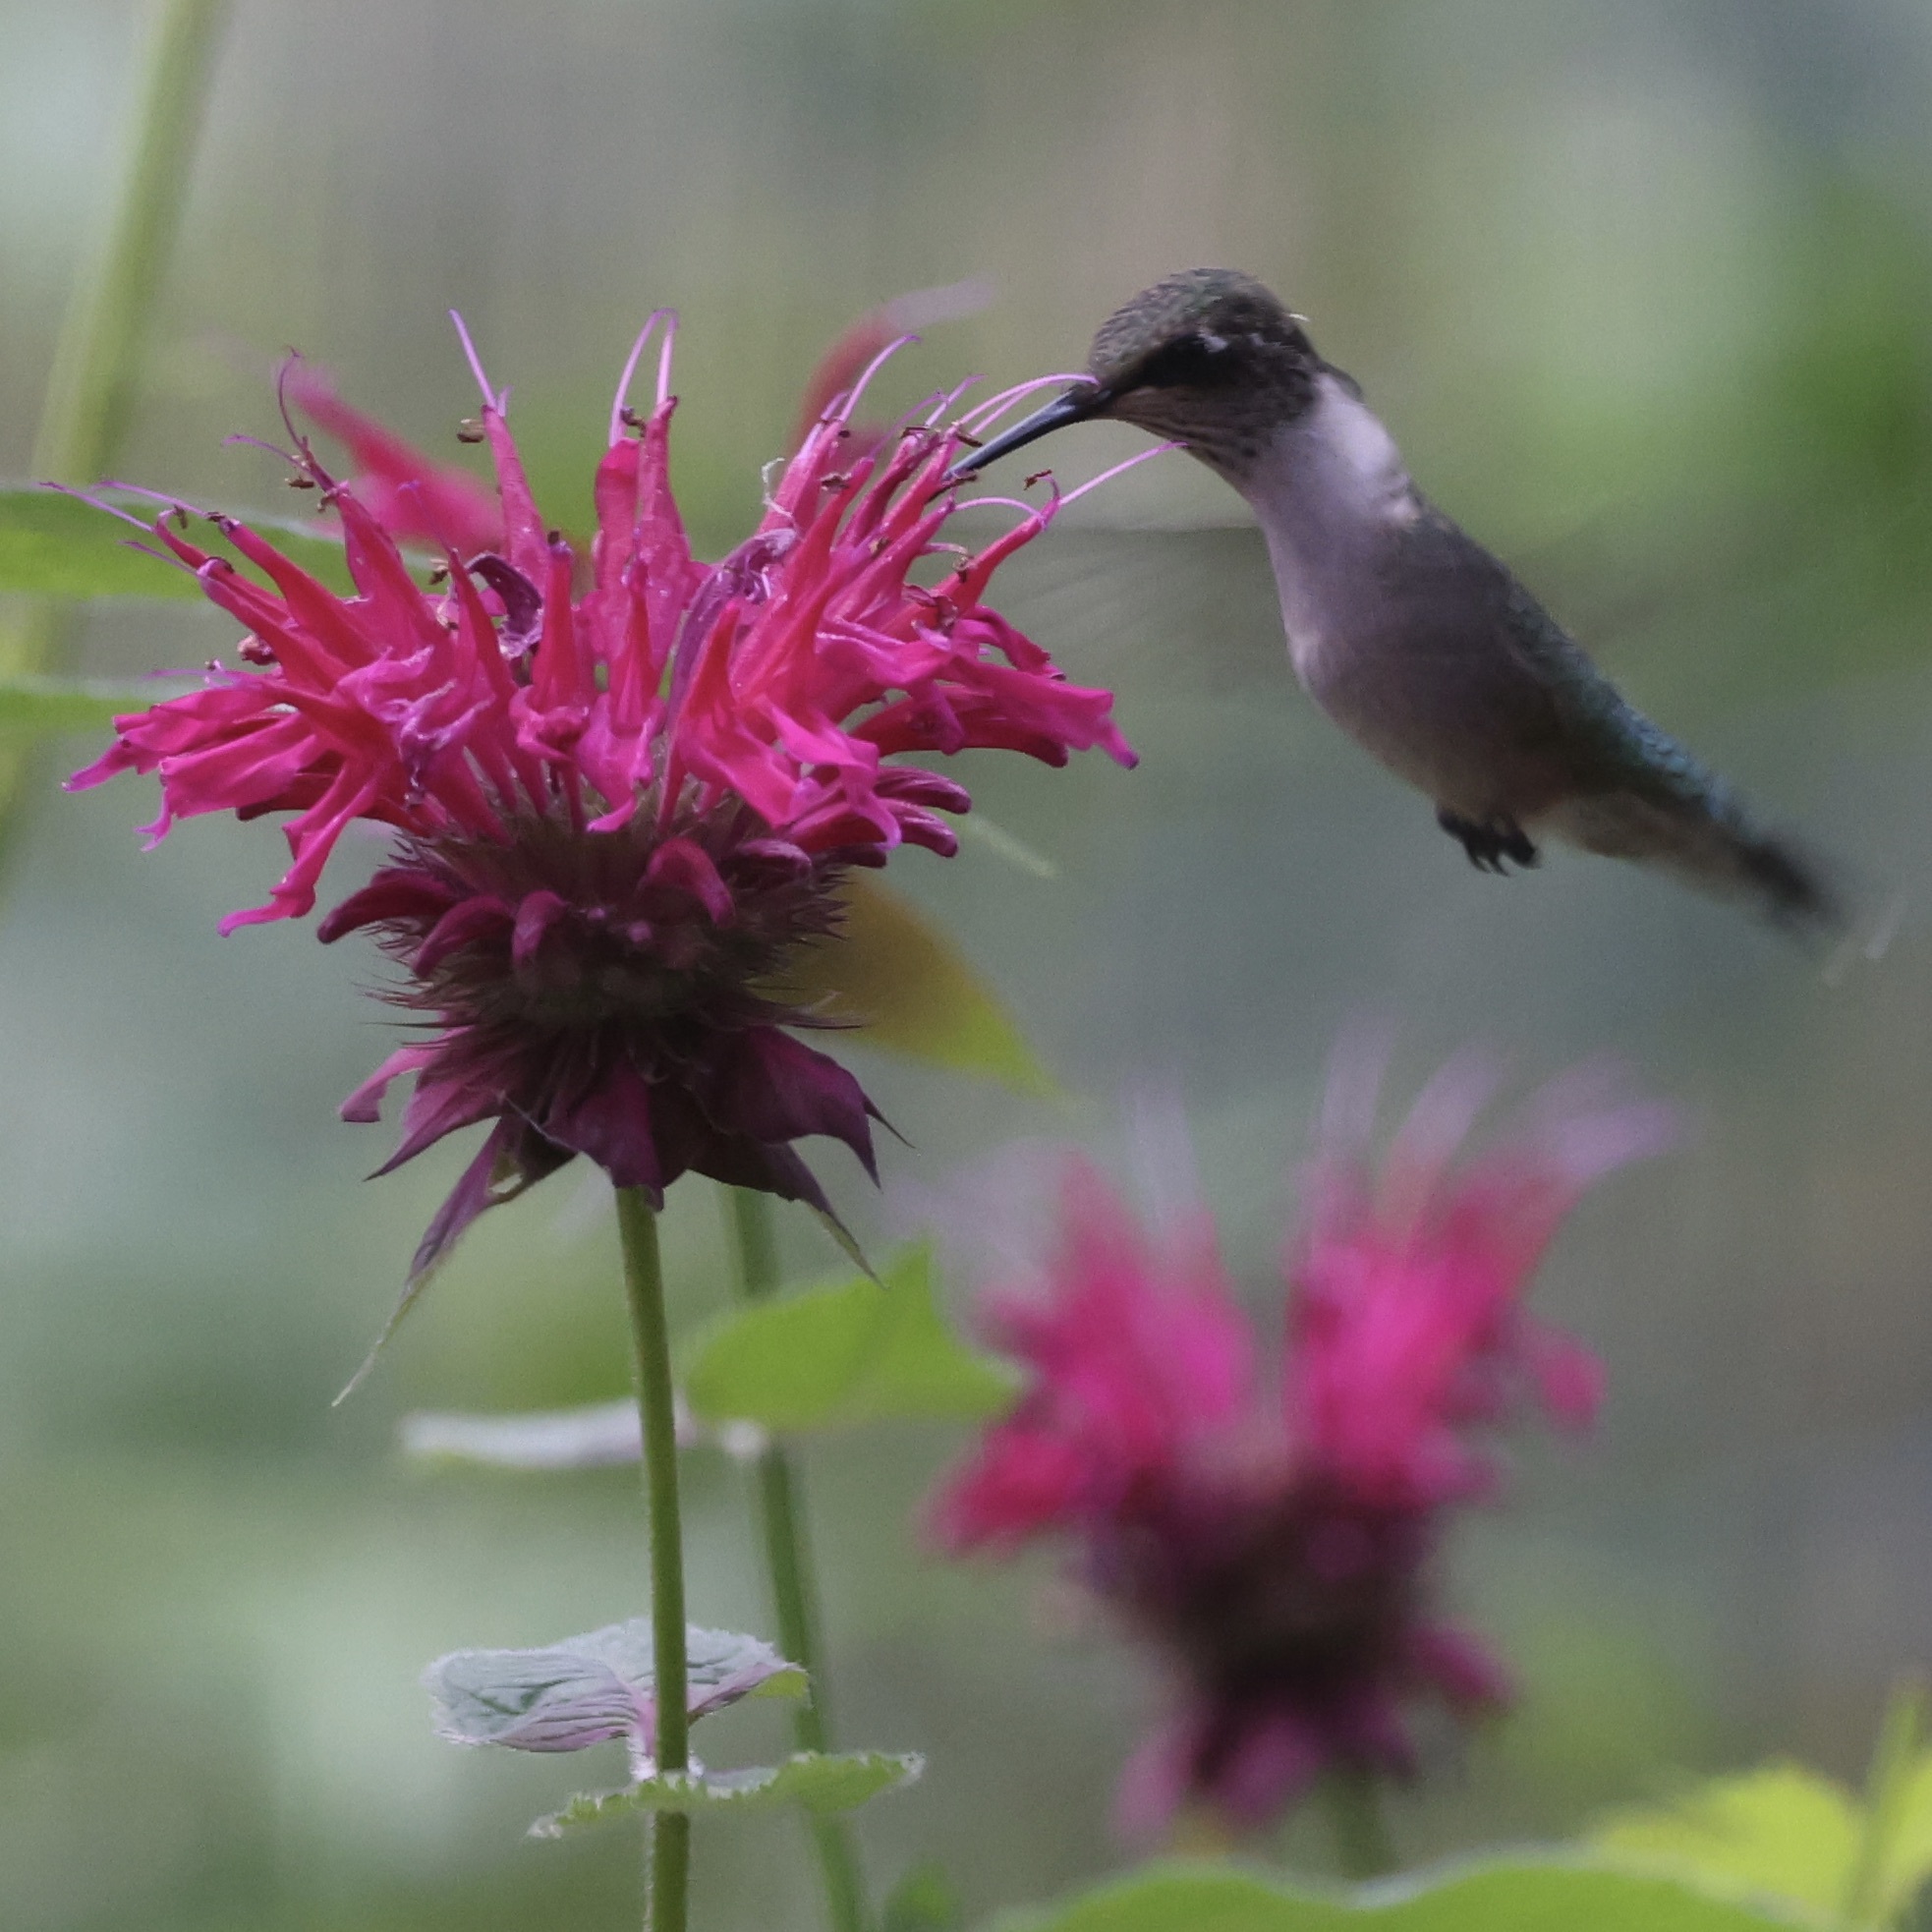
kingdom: Animalia
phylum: Chordata
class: Aves
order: Apodiformes
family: Trochilidae
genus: Archilochus
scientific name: Archilochus colubris
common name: Ruby-throated hummingbird
